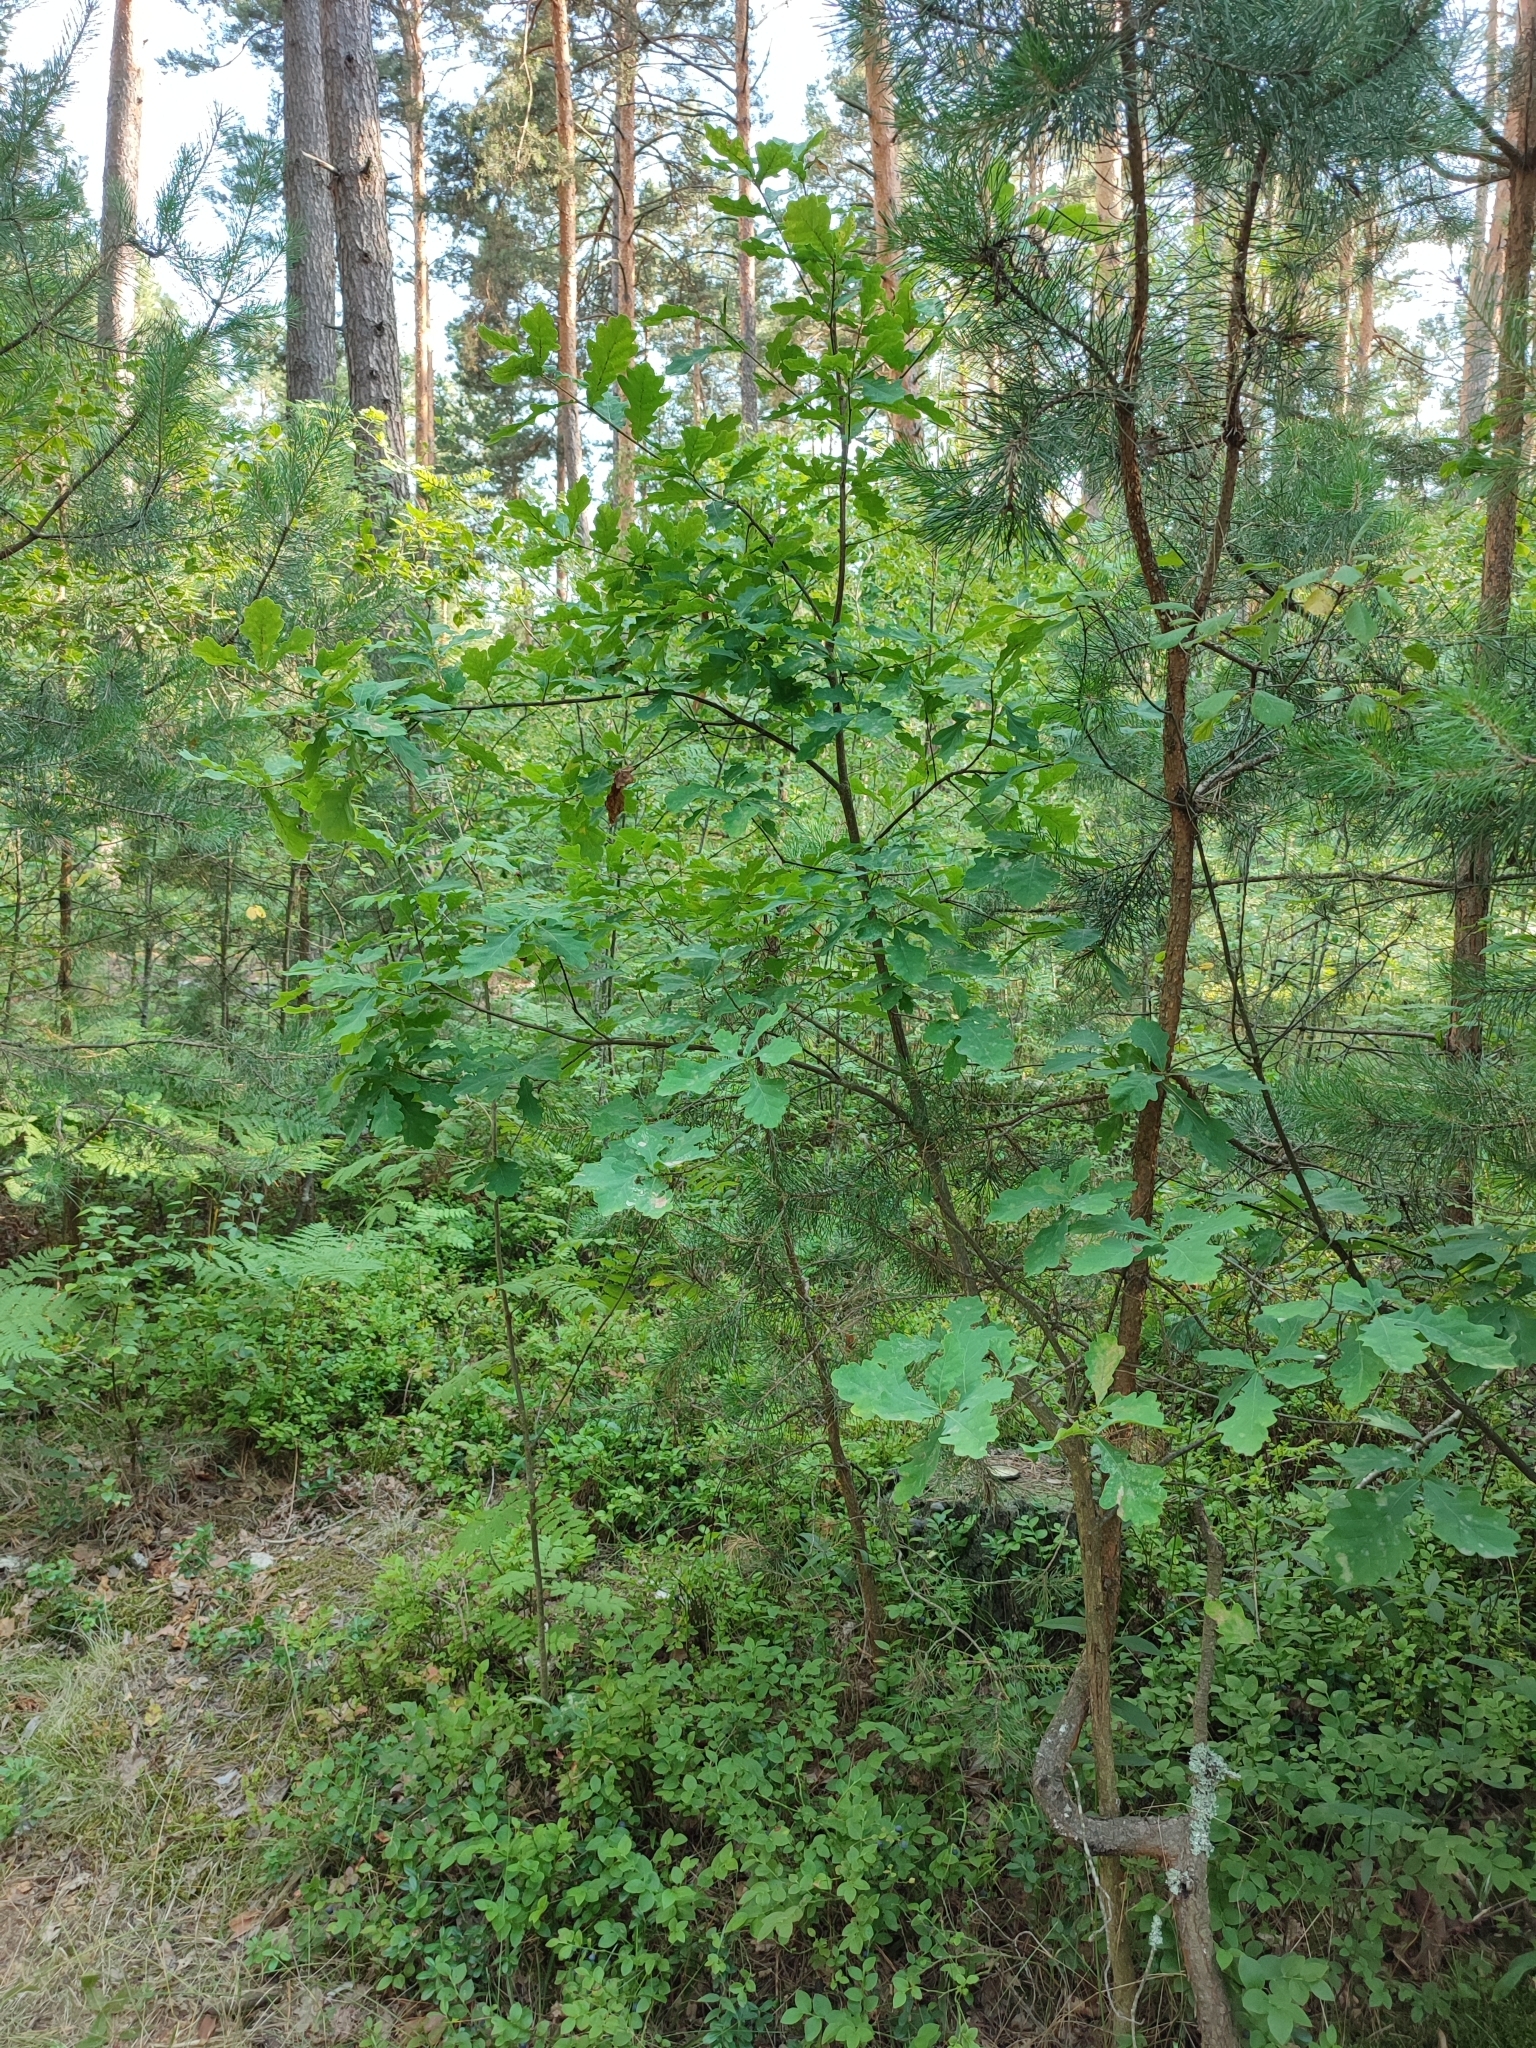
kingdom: Plantae
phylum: Tracheophyta
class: Magnoliopsida
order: Fagales
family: Fagaceae
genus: Quercus
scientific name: Quercus robur
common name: Pedunculate oak
